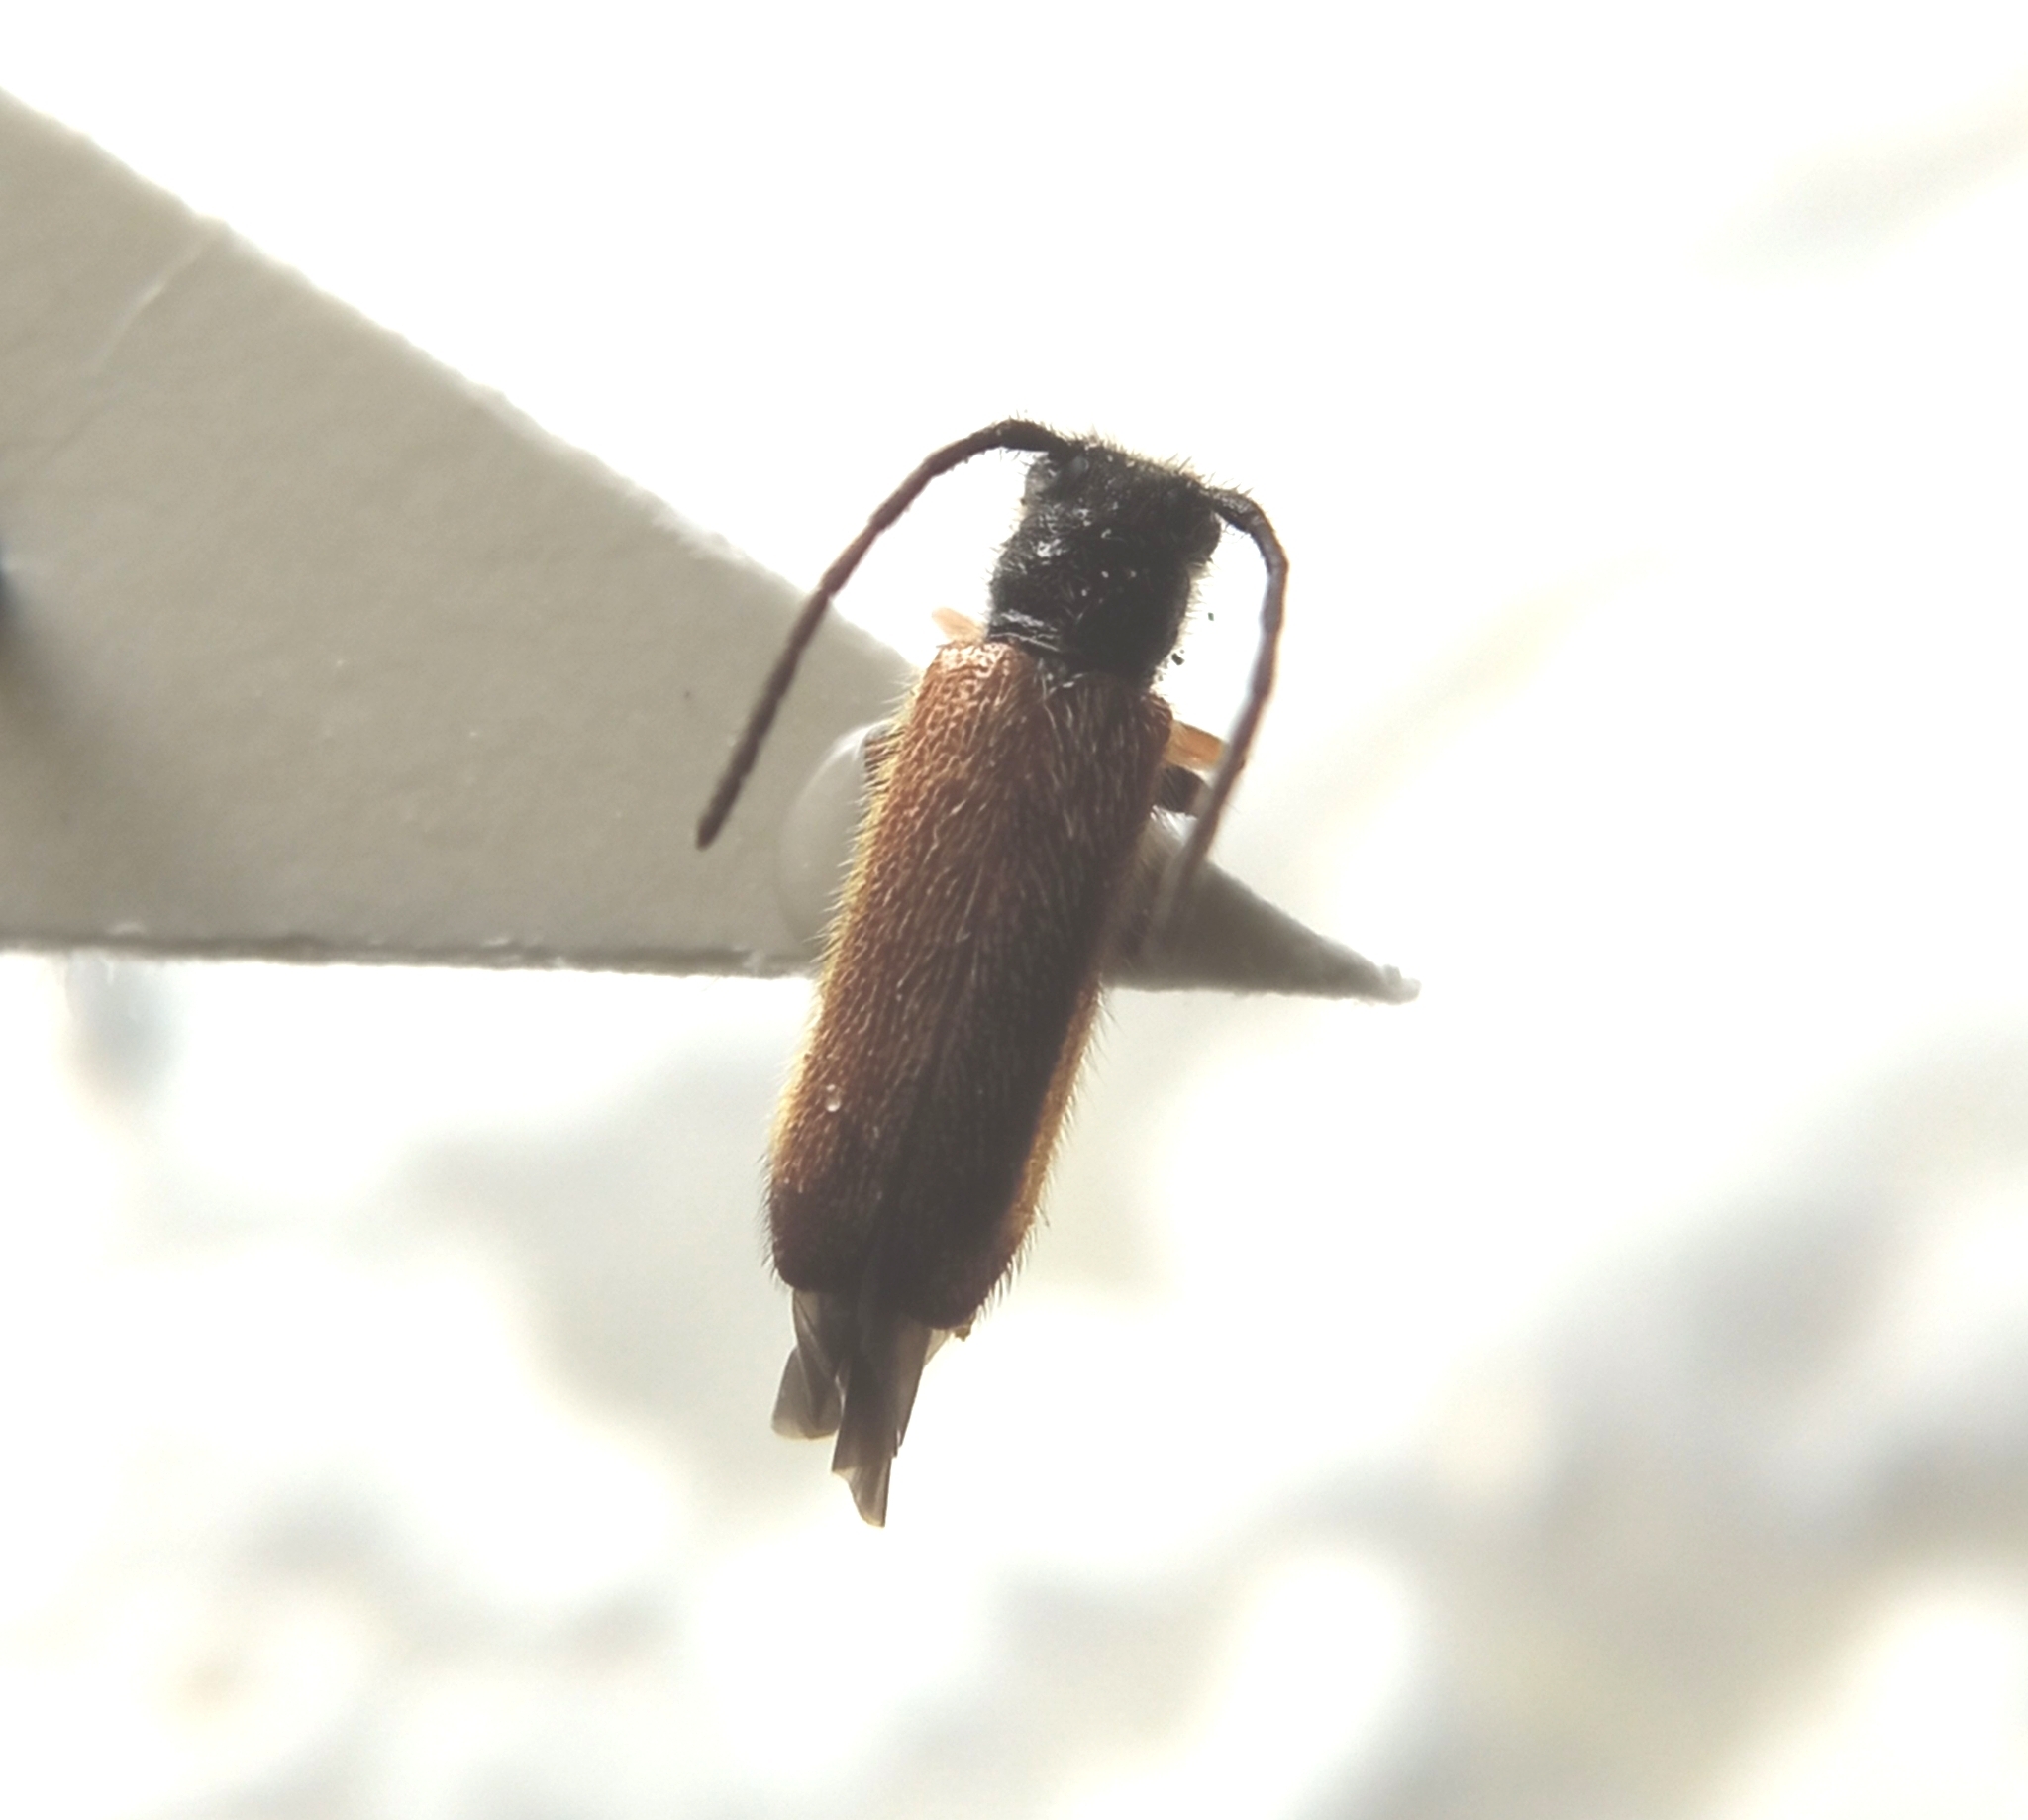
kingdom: Animalia
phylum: Arthropoda
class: Insecta
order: Coleoptera
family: Cerambycidae
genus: Tetrops
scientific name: Tetrops praeustus
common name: Plum beetle
